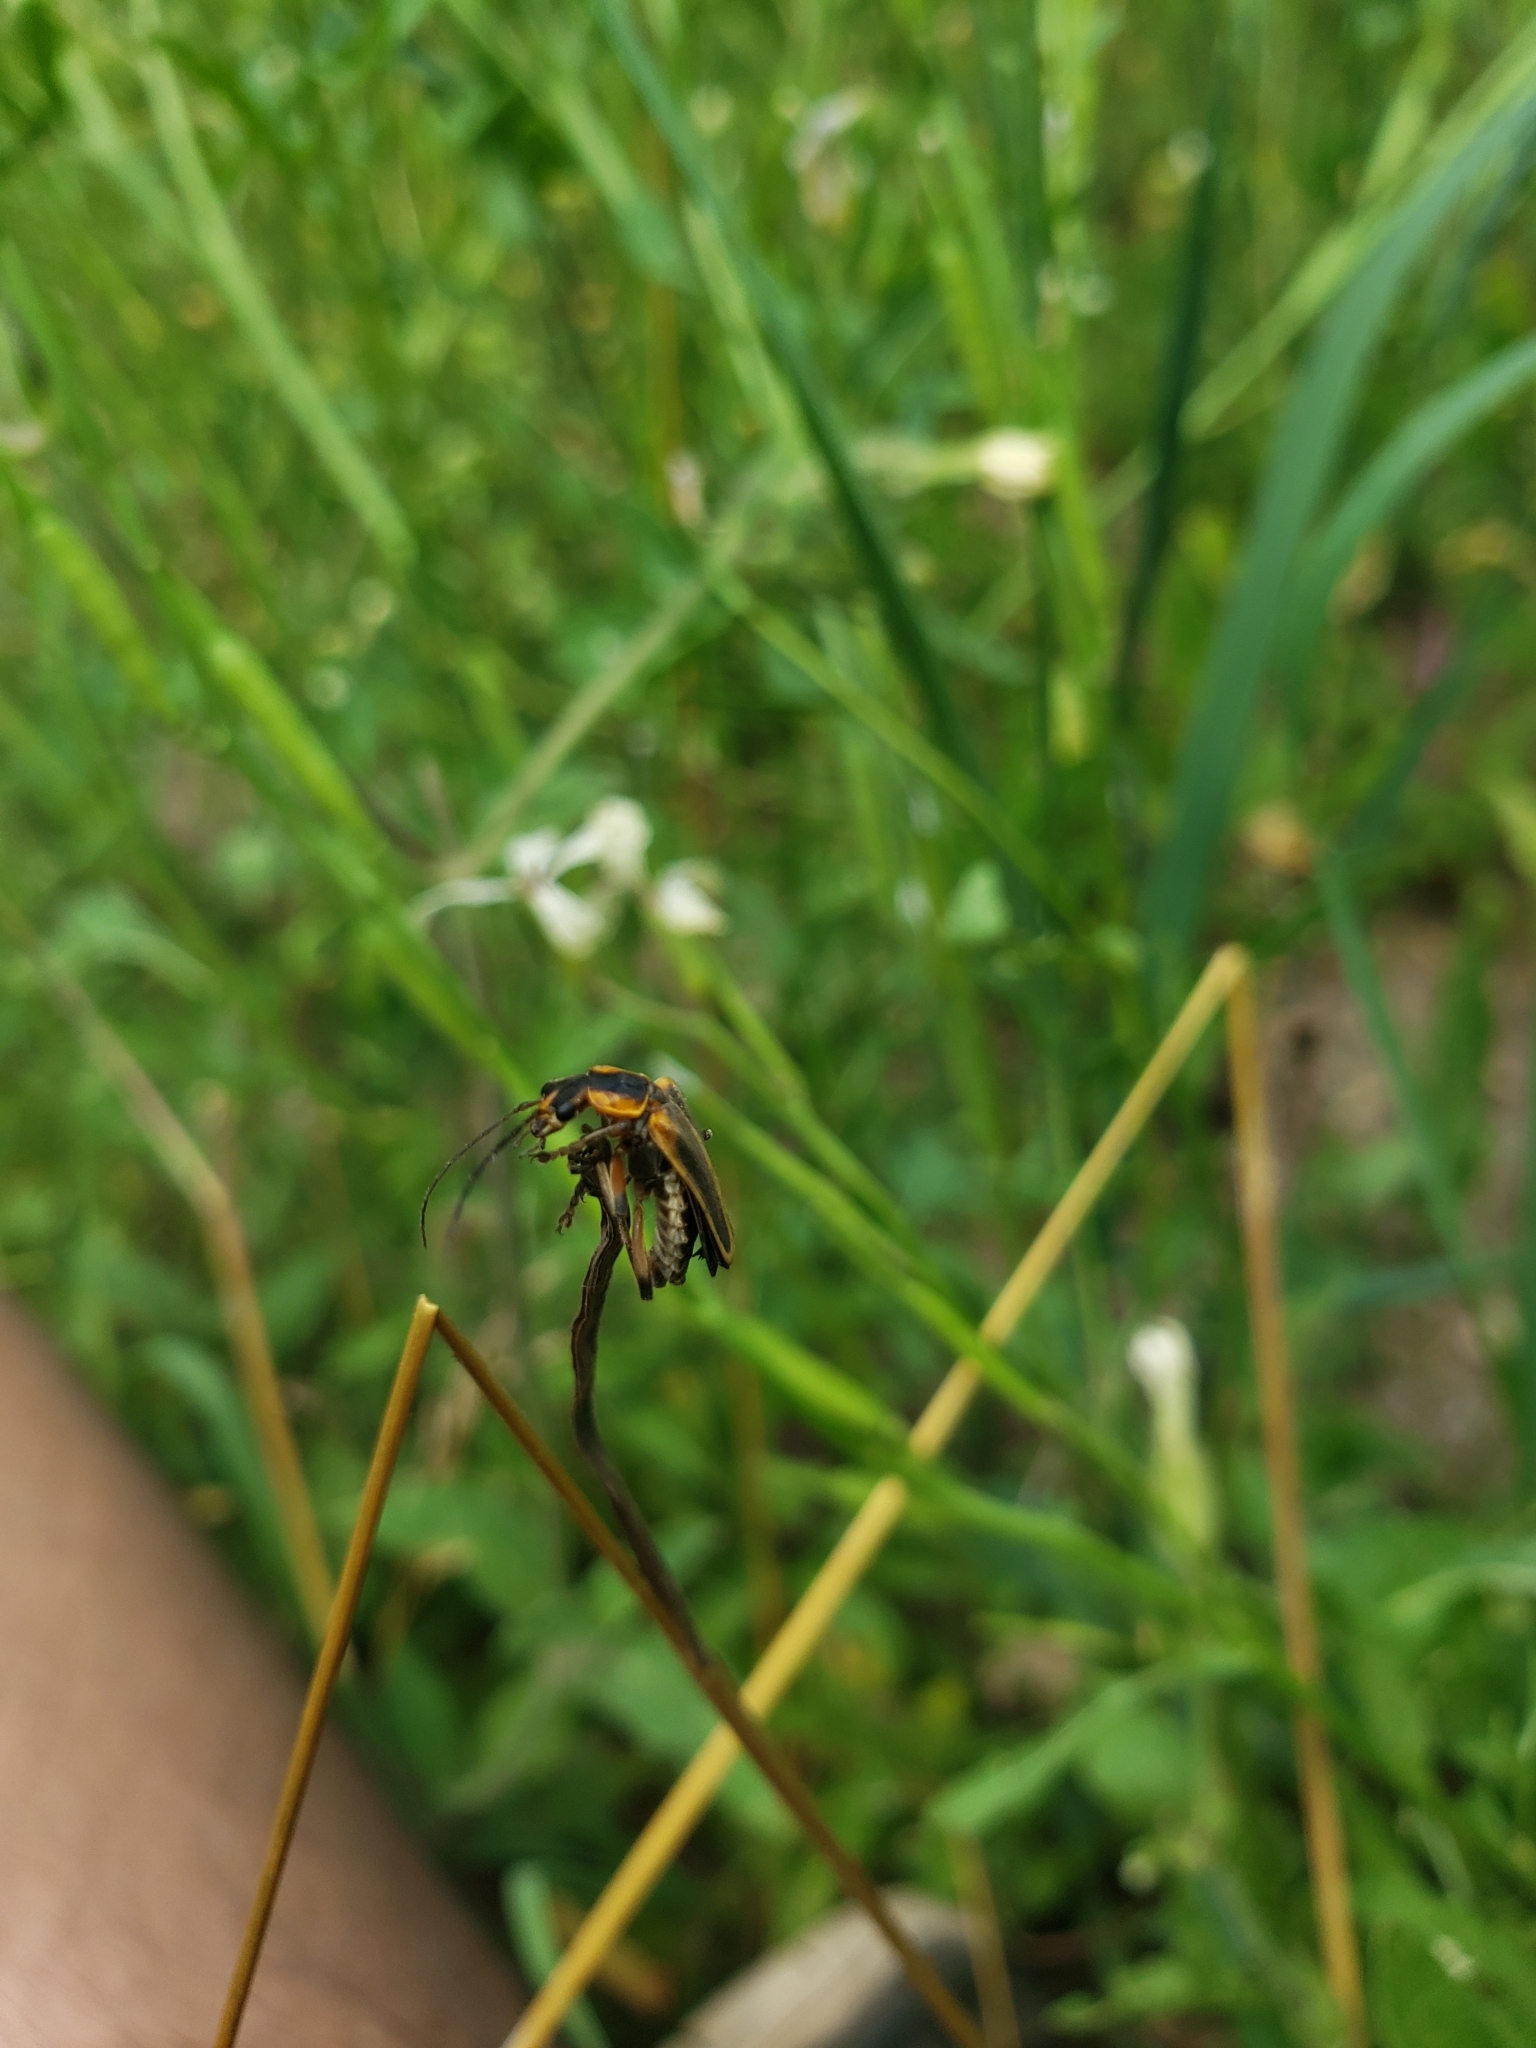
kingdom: Animalia
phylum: Arthropoda
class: Insecta
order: Coleoptera
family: Cantharidae
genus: Chauliognathus
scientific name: Chauliognathus marginatus
